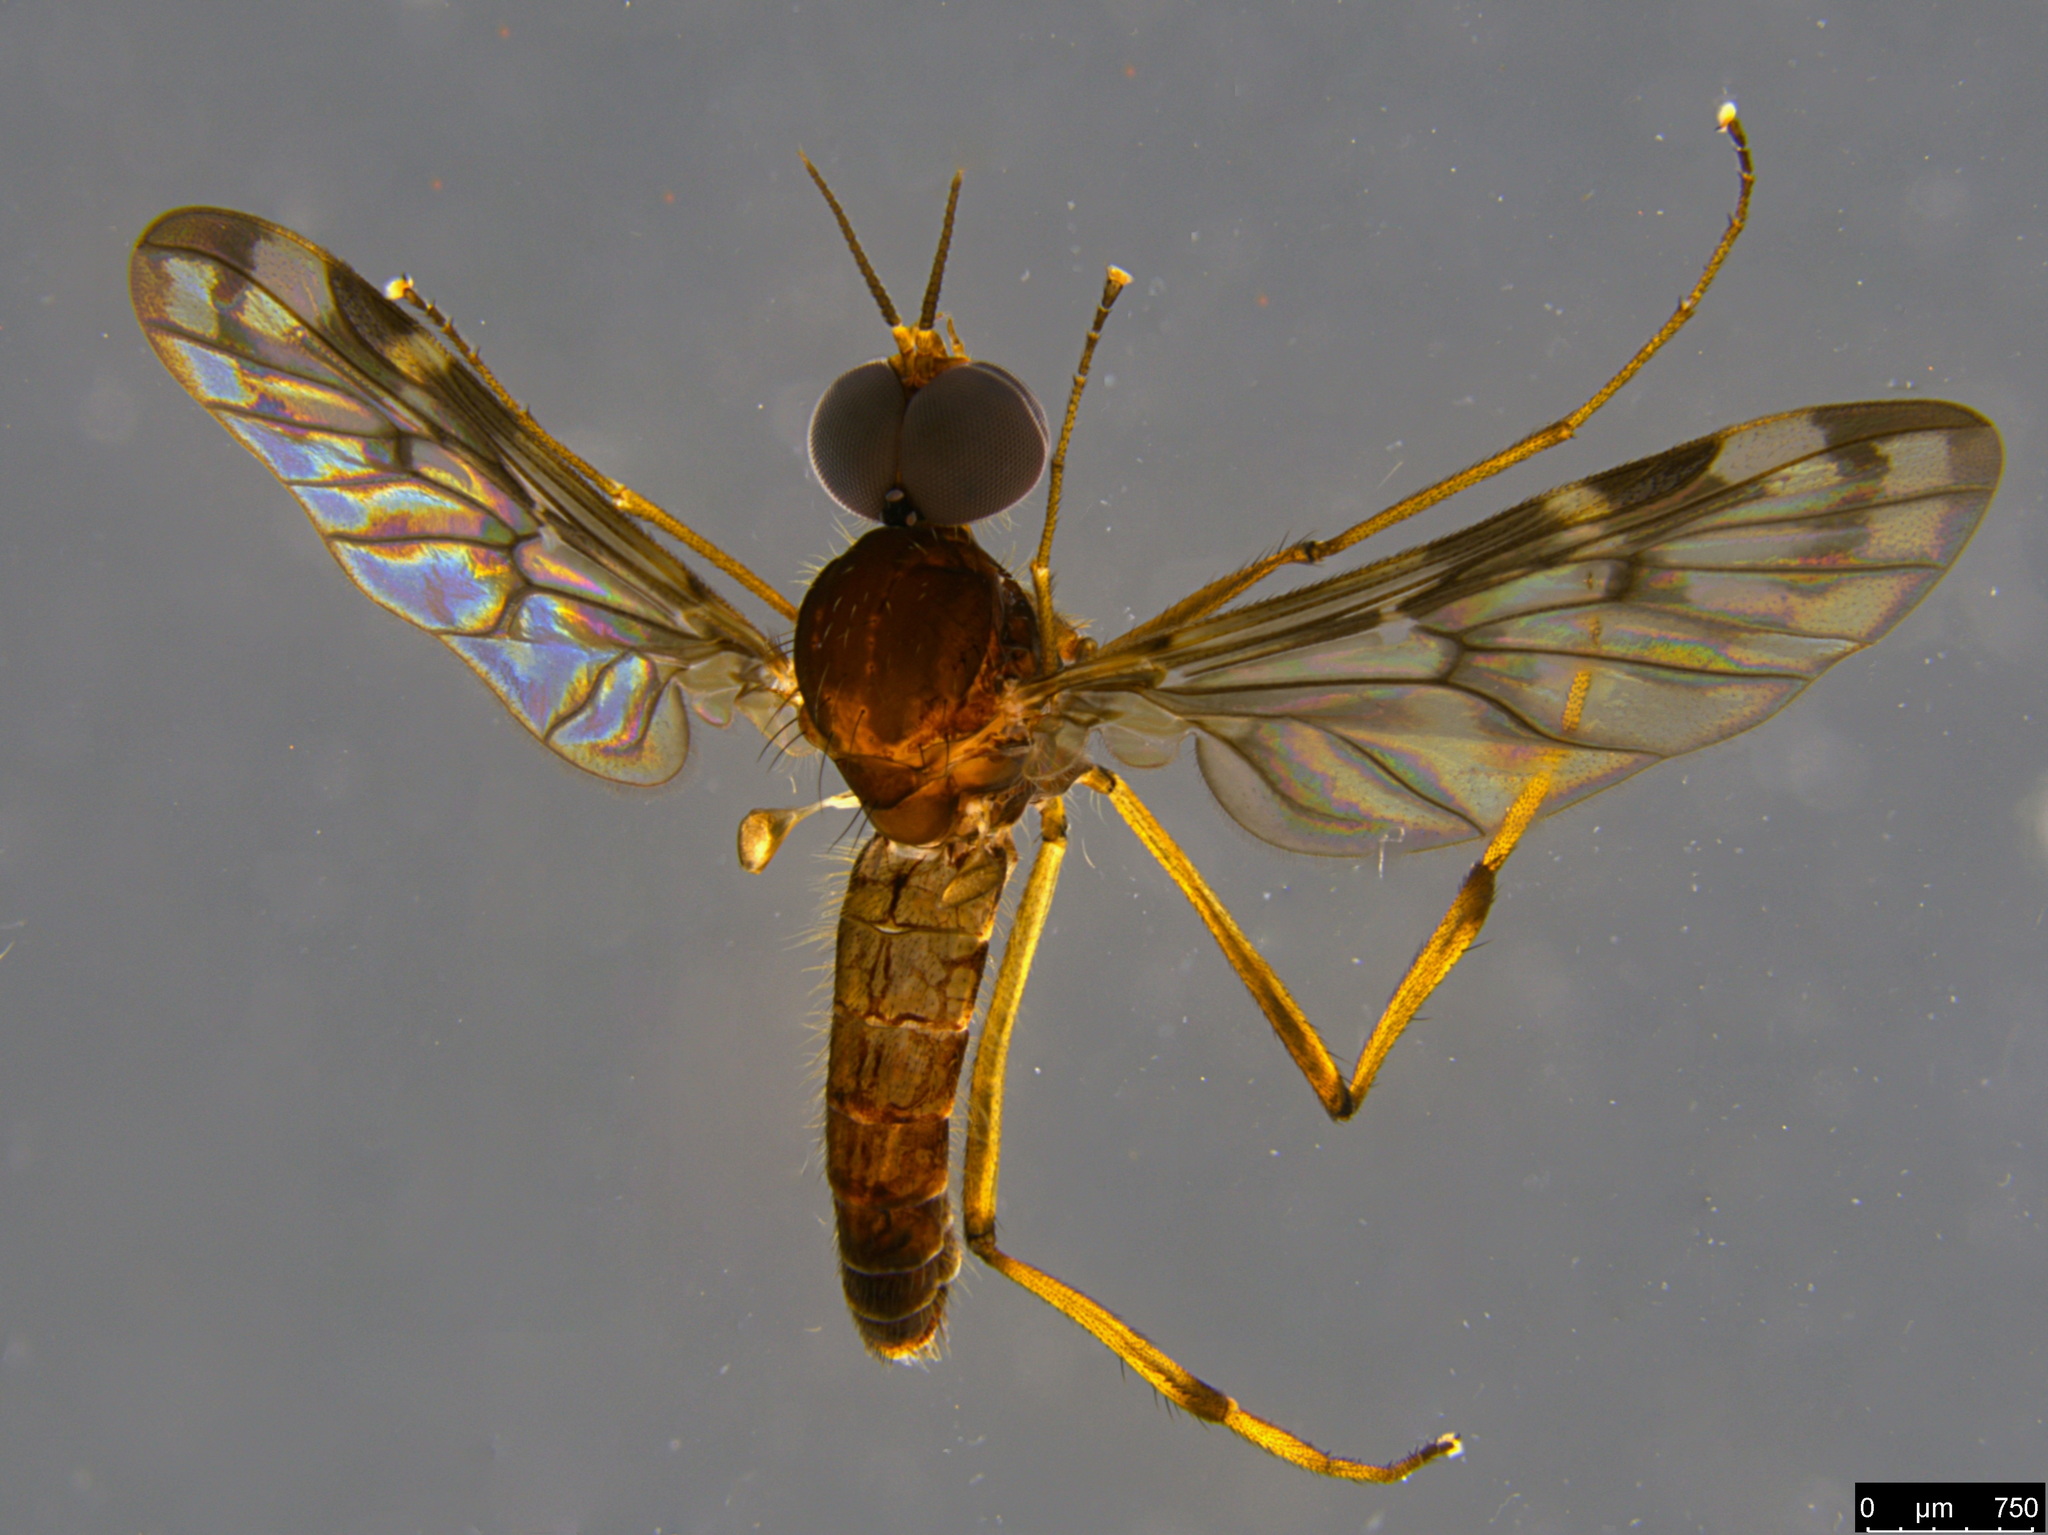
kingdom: Animalia
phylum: Arthropoda
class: Insecta
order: Diptera
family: Anisopodidae
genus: Sylvicola
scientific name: Sylvicola dubius
